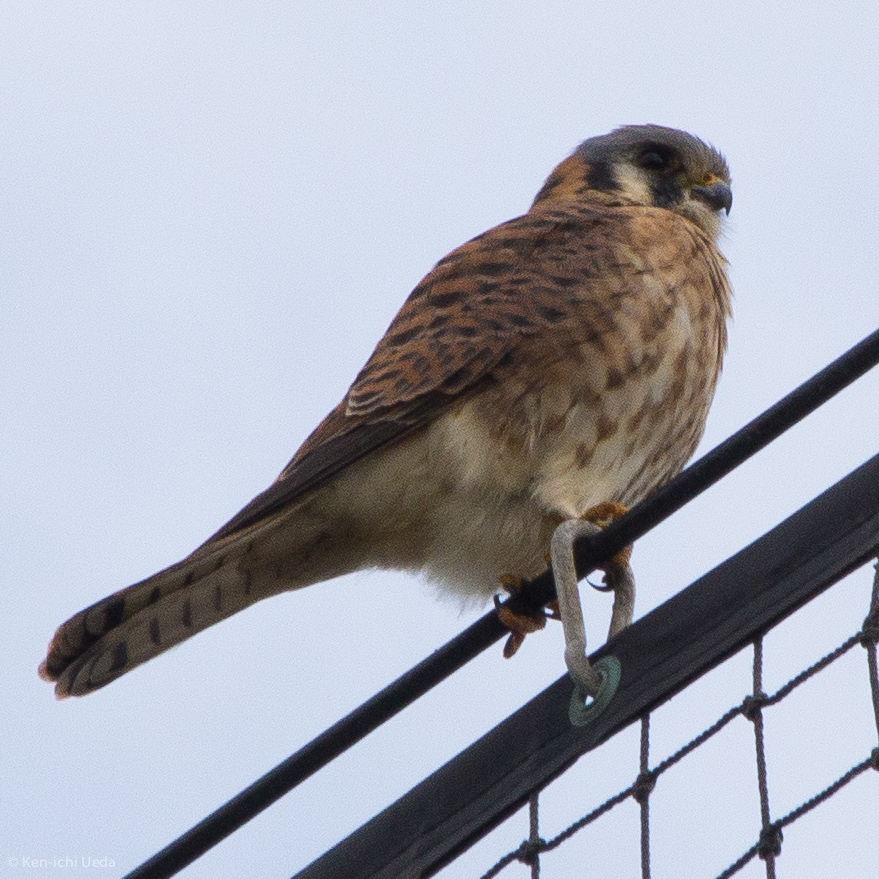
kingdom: Animalia
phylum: Chordata
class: Aves
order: Falconiformes
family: Falconidae
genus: Falco
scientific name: Falco sparverius
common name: American kestrel
